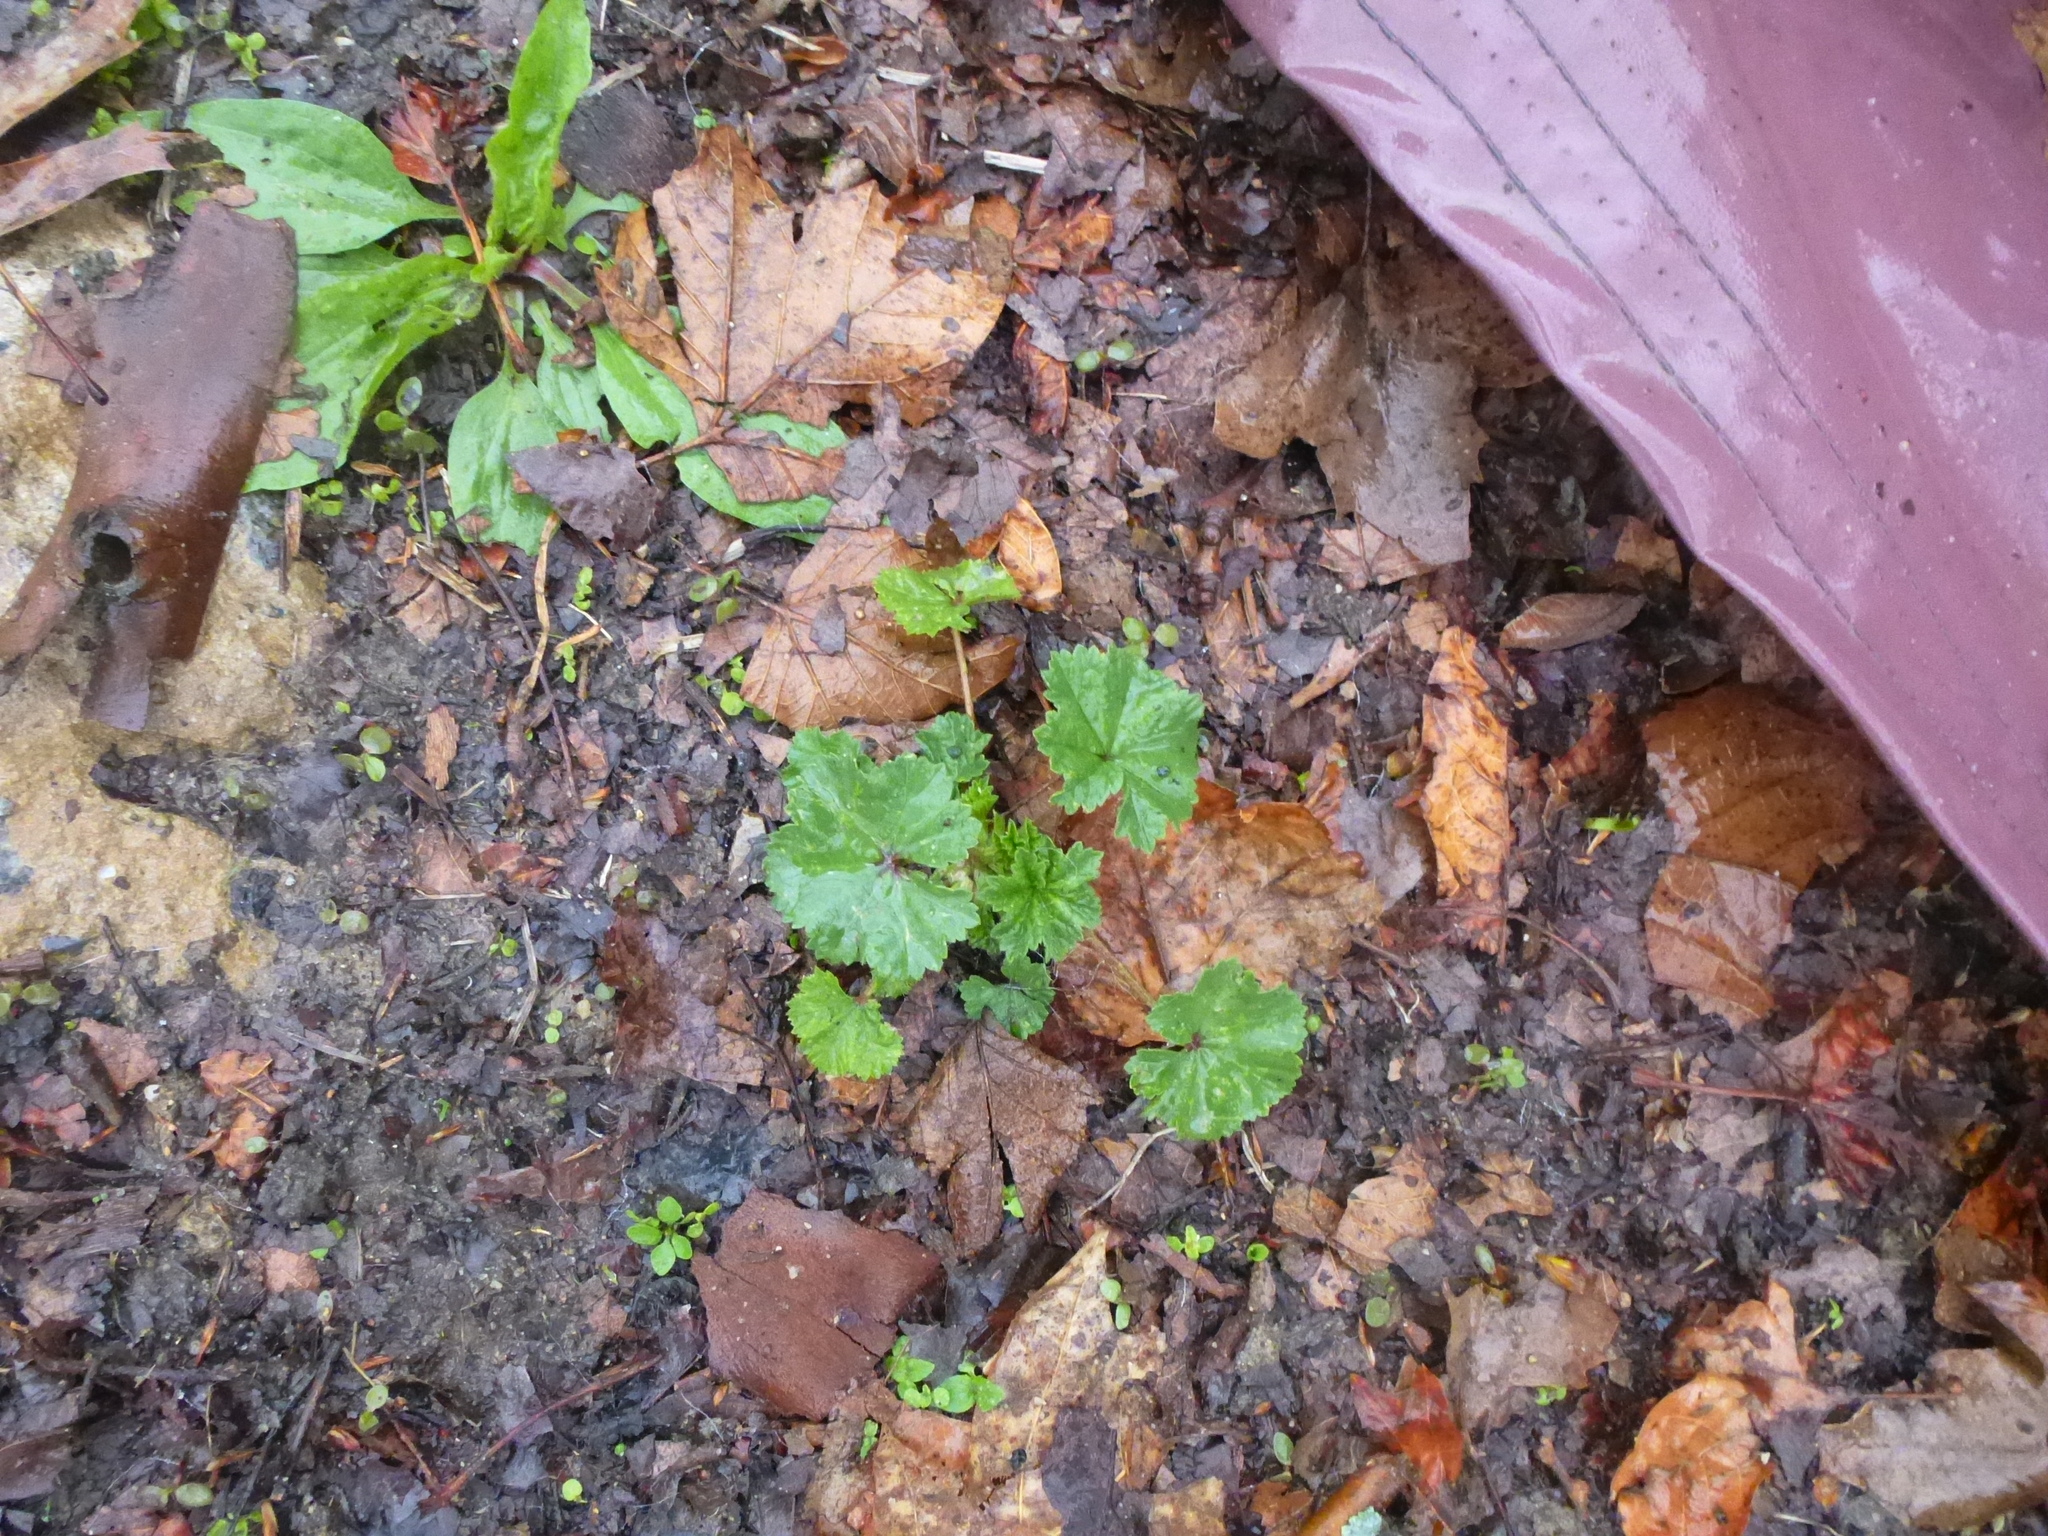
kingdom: Plantae
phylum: Tracheophyta
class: Magnoliopsida
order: Malvales
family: Malvaceae
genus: Malva
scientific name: Malva neglecta
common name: Common mallow
